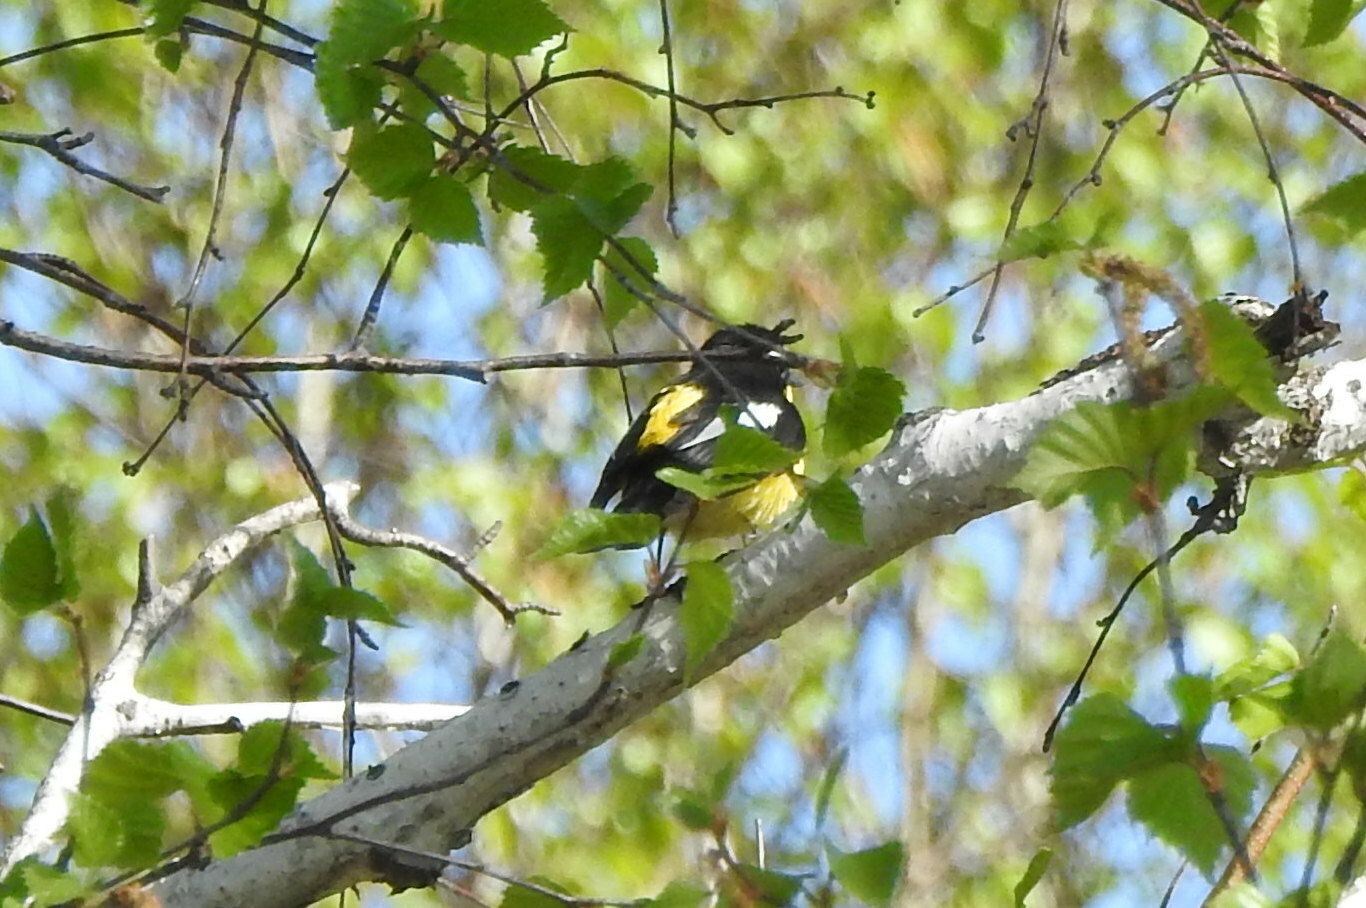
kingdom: Animalia
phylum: Chordata
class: Aves
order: Passeriformes
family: Muscicapidae
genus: Ficedula
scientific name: Ficedula zanthopygia
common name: Yellow-rumped flycatcher
